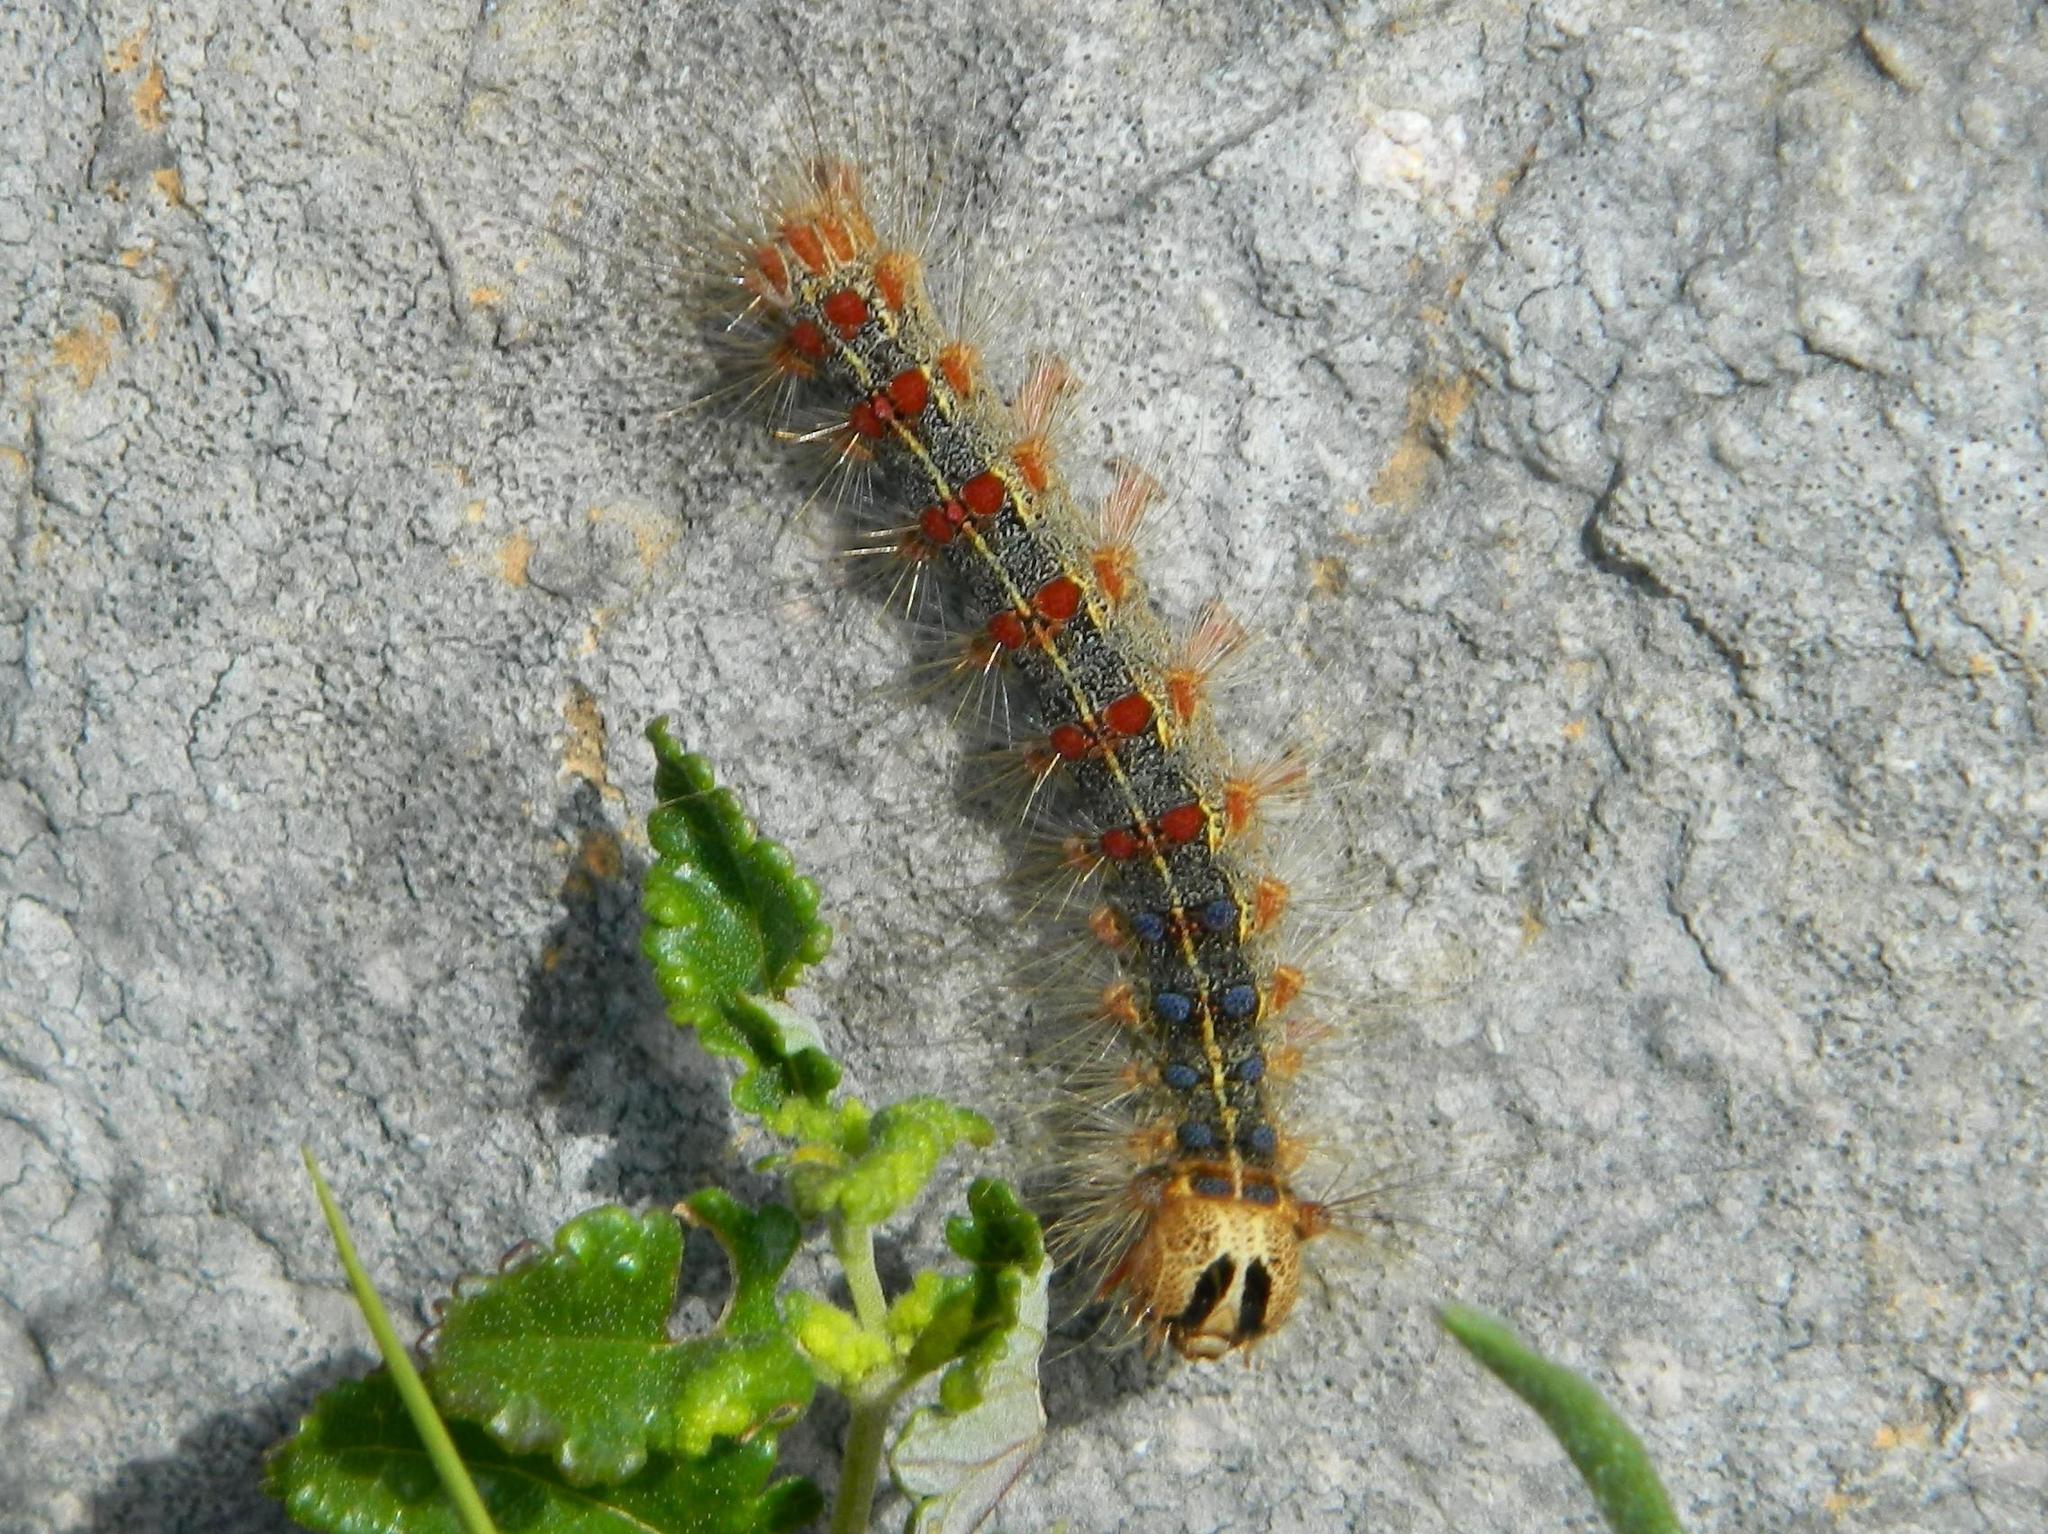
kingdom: Animalia
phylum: Arthropoda
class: Insecta
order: Lepidoptera
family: Erebidae
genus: Lymantria
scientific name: Lymantria dispar
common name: Gypsy moth
